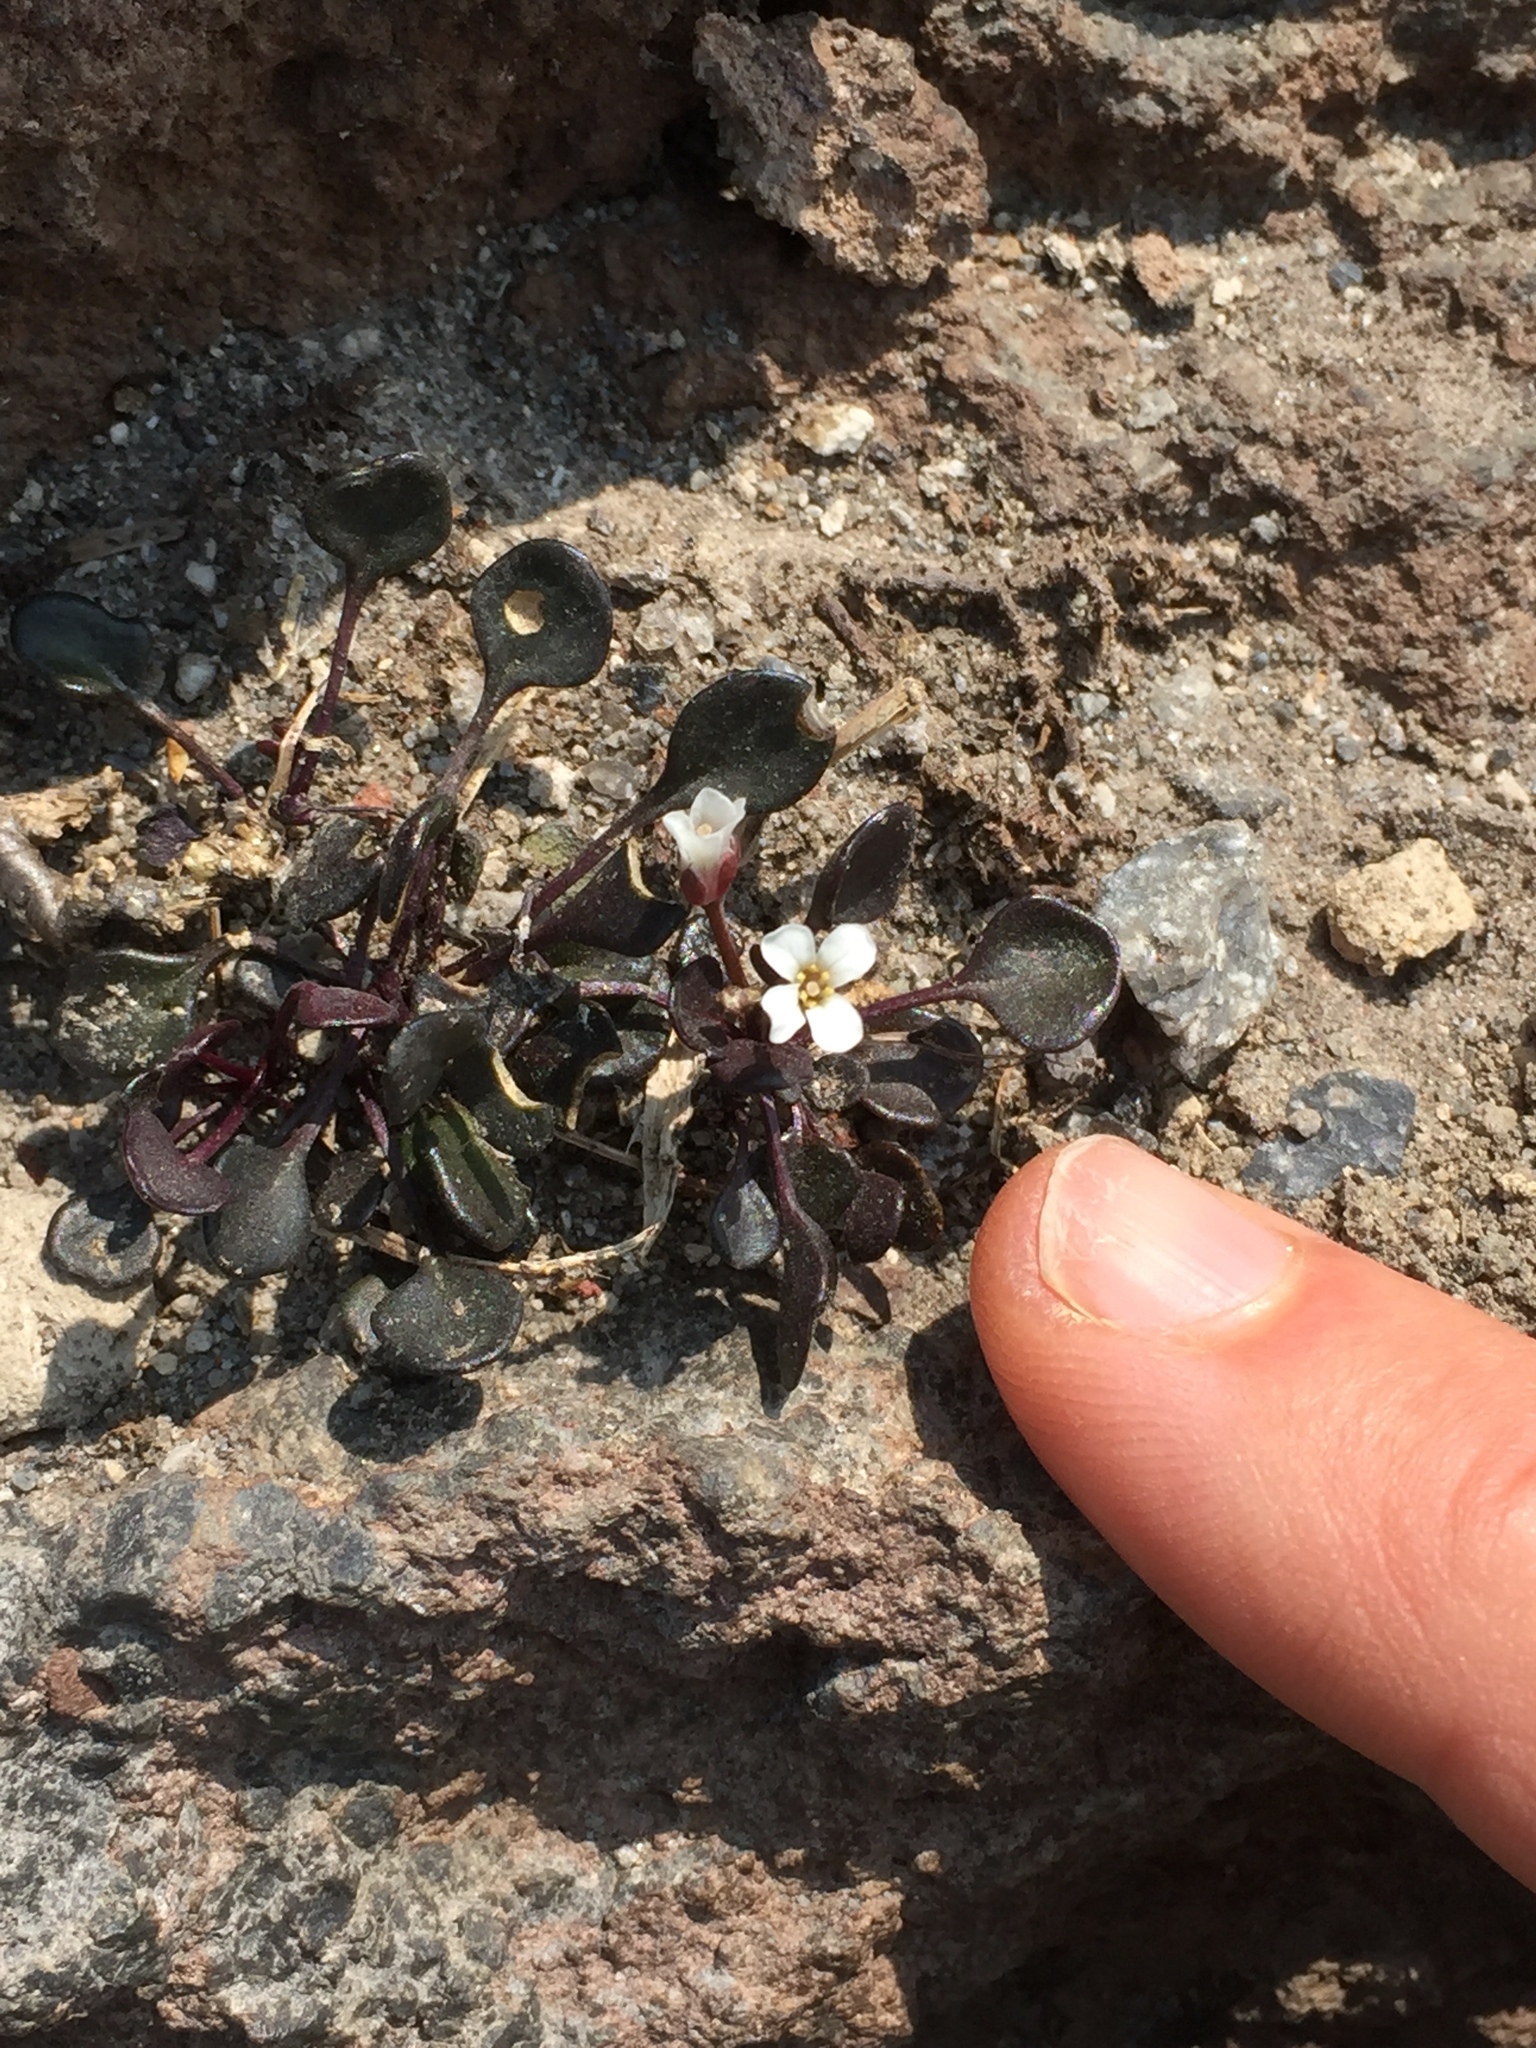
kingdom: Plantae
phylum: Tracheophyta
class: Magnoliopsida
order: Brassicales
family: Brassicaceae
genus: Cardamine
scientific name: Cardamine bellidifolia
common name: Alpine bittercress
